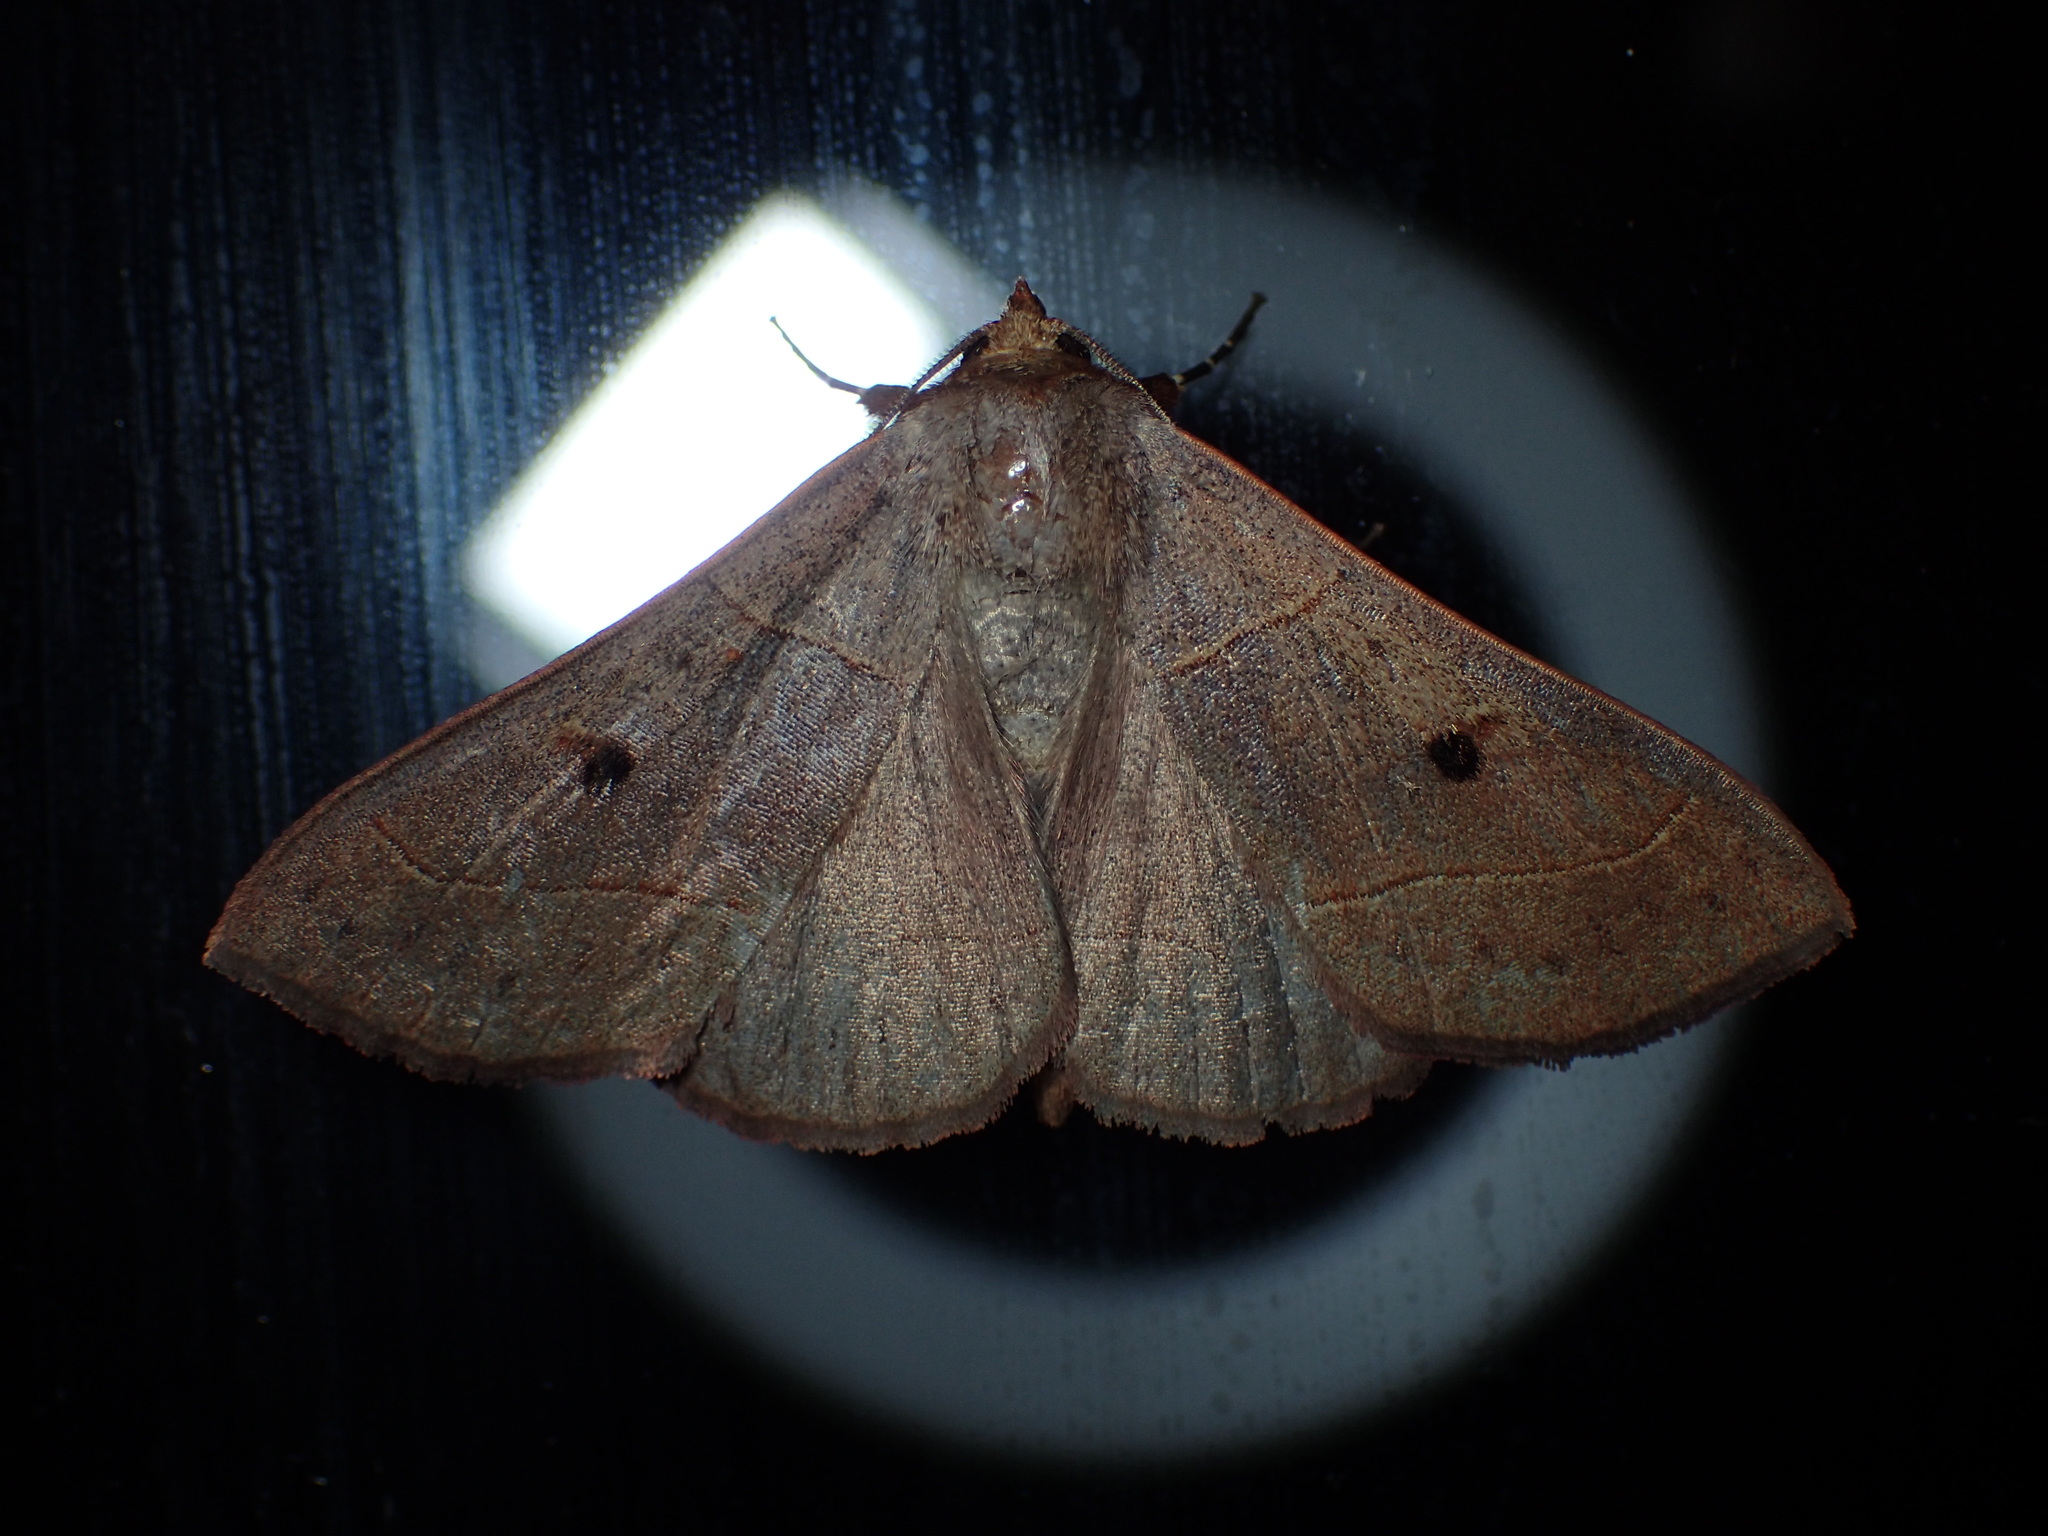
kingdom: Animalia
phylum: Arthropoda
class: Insecta
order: Lepidoptera
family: Erebidae
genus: Panopoda
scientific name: Panopoda rufimargo
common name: Red-lined panopoda moth
